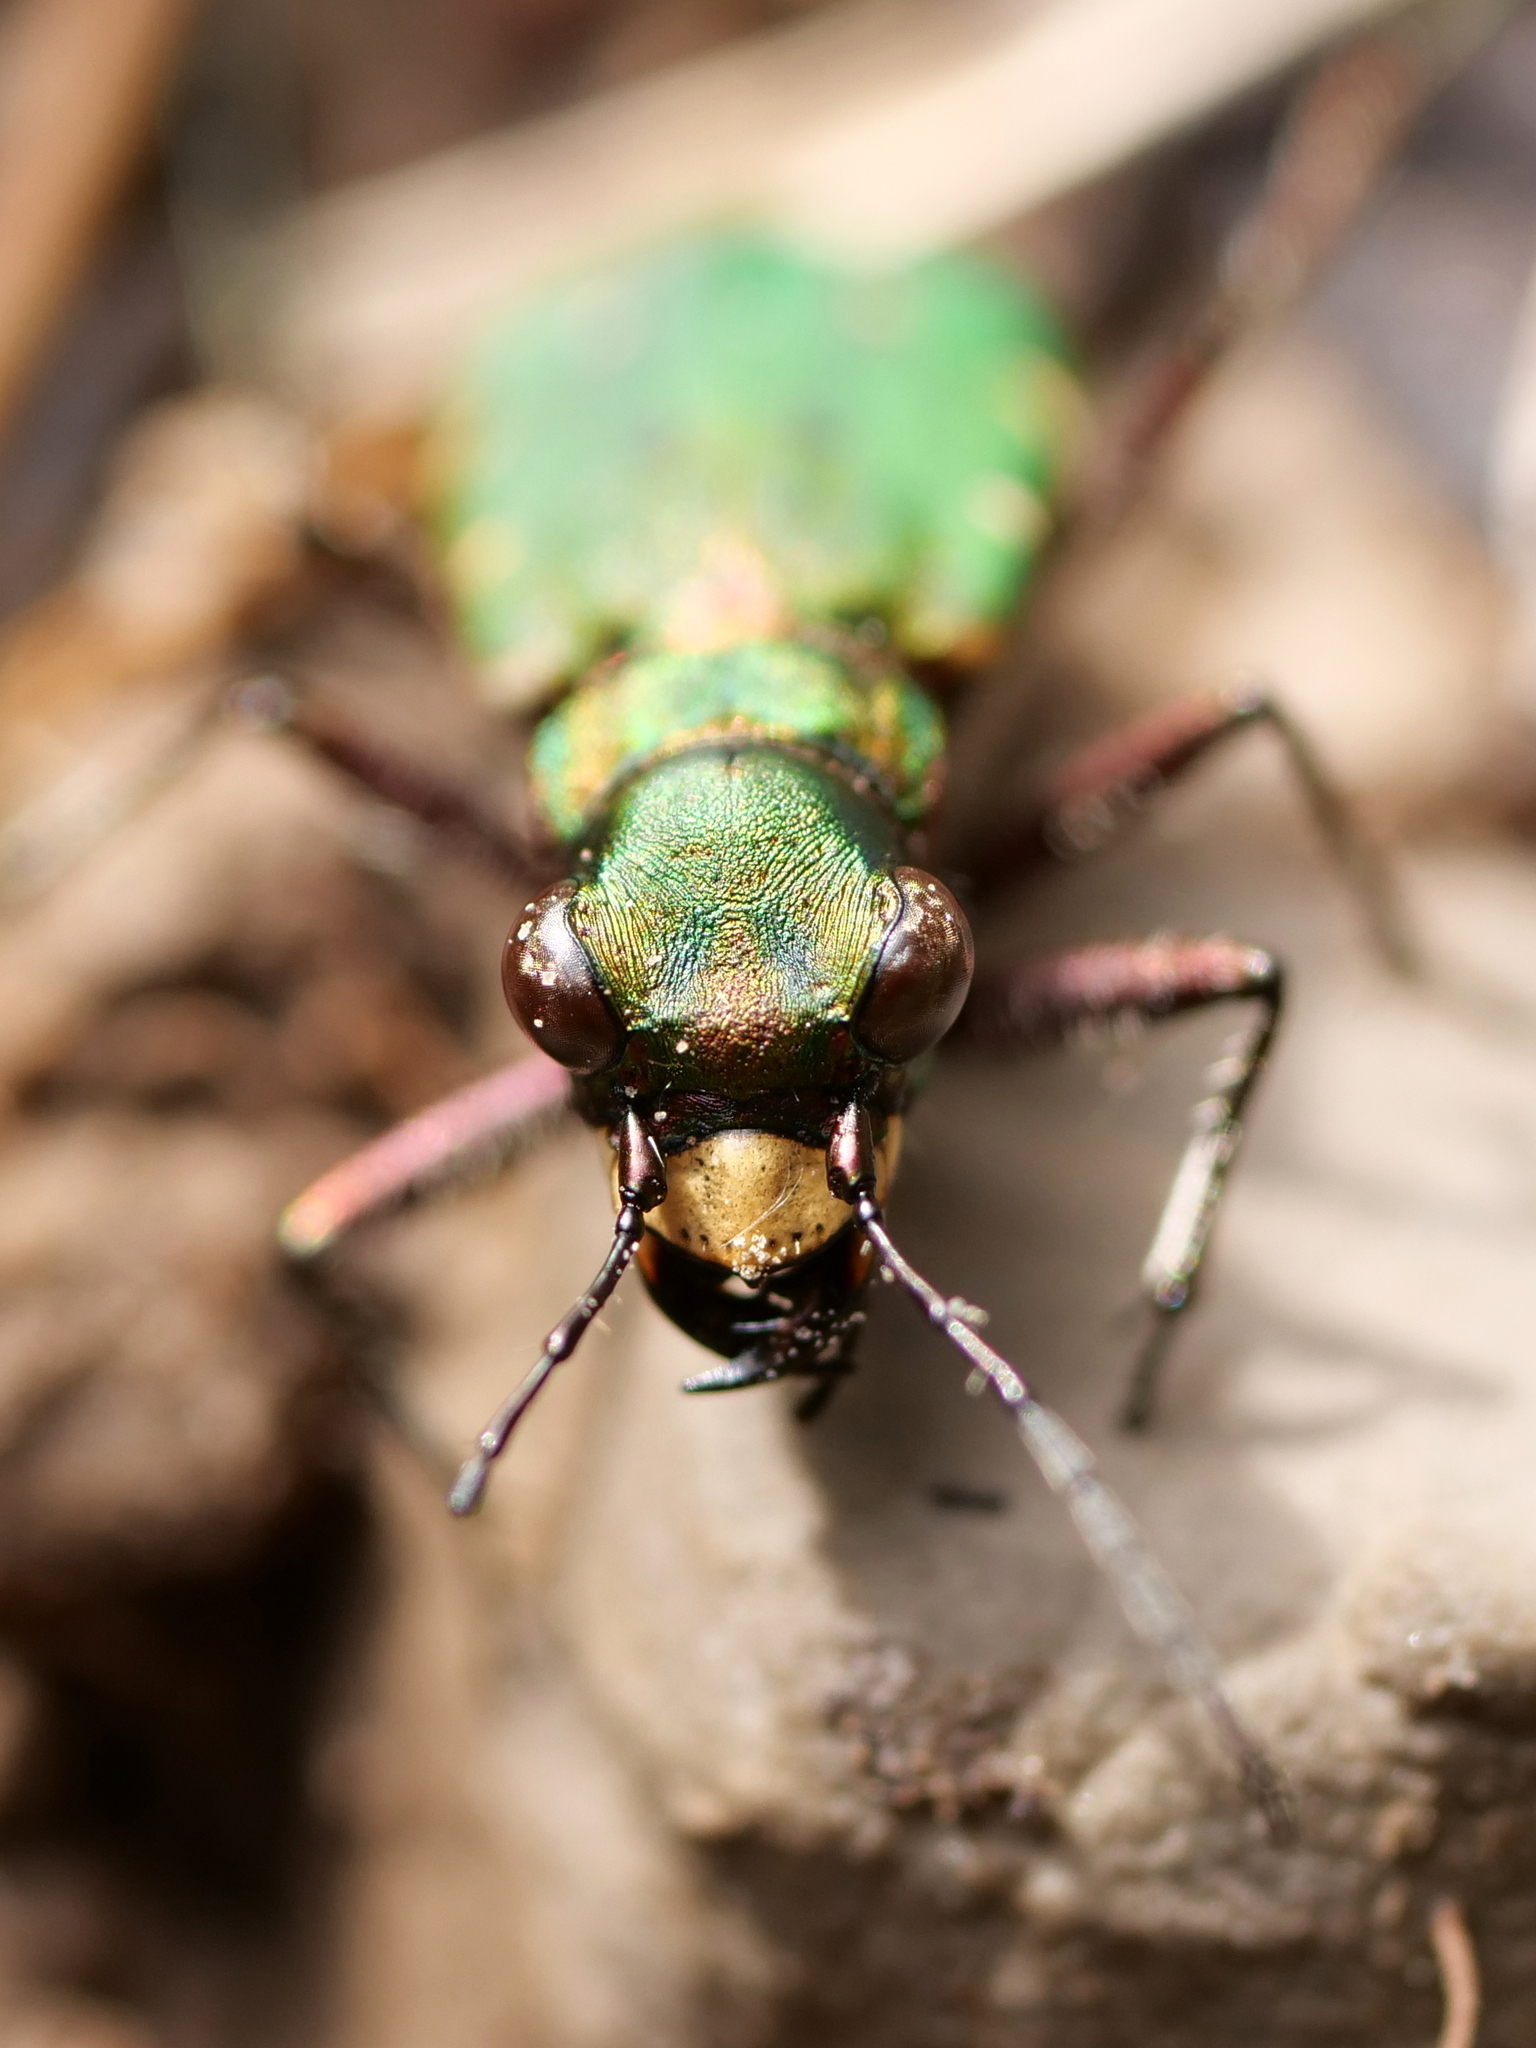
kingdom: Animalia
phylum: Arthropoda
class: Insecta
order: Coleoptera
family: Carabidae
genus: Cicindela
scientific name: Cicindela campestris
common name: Common tiger beetle
